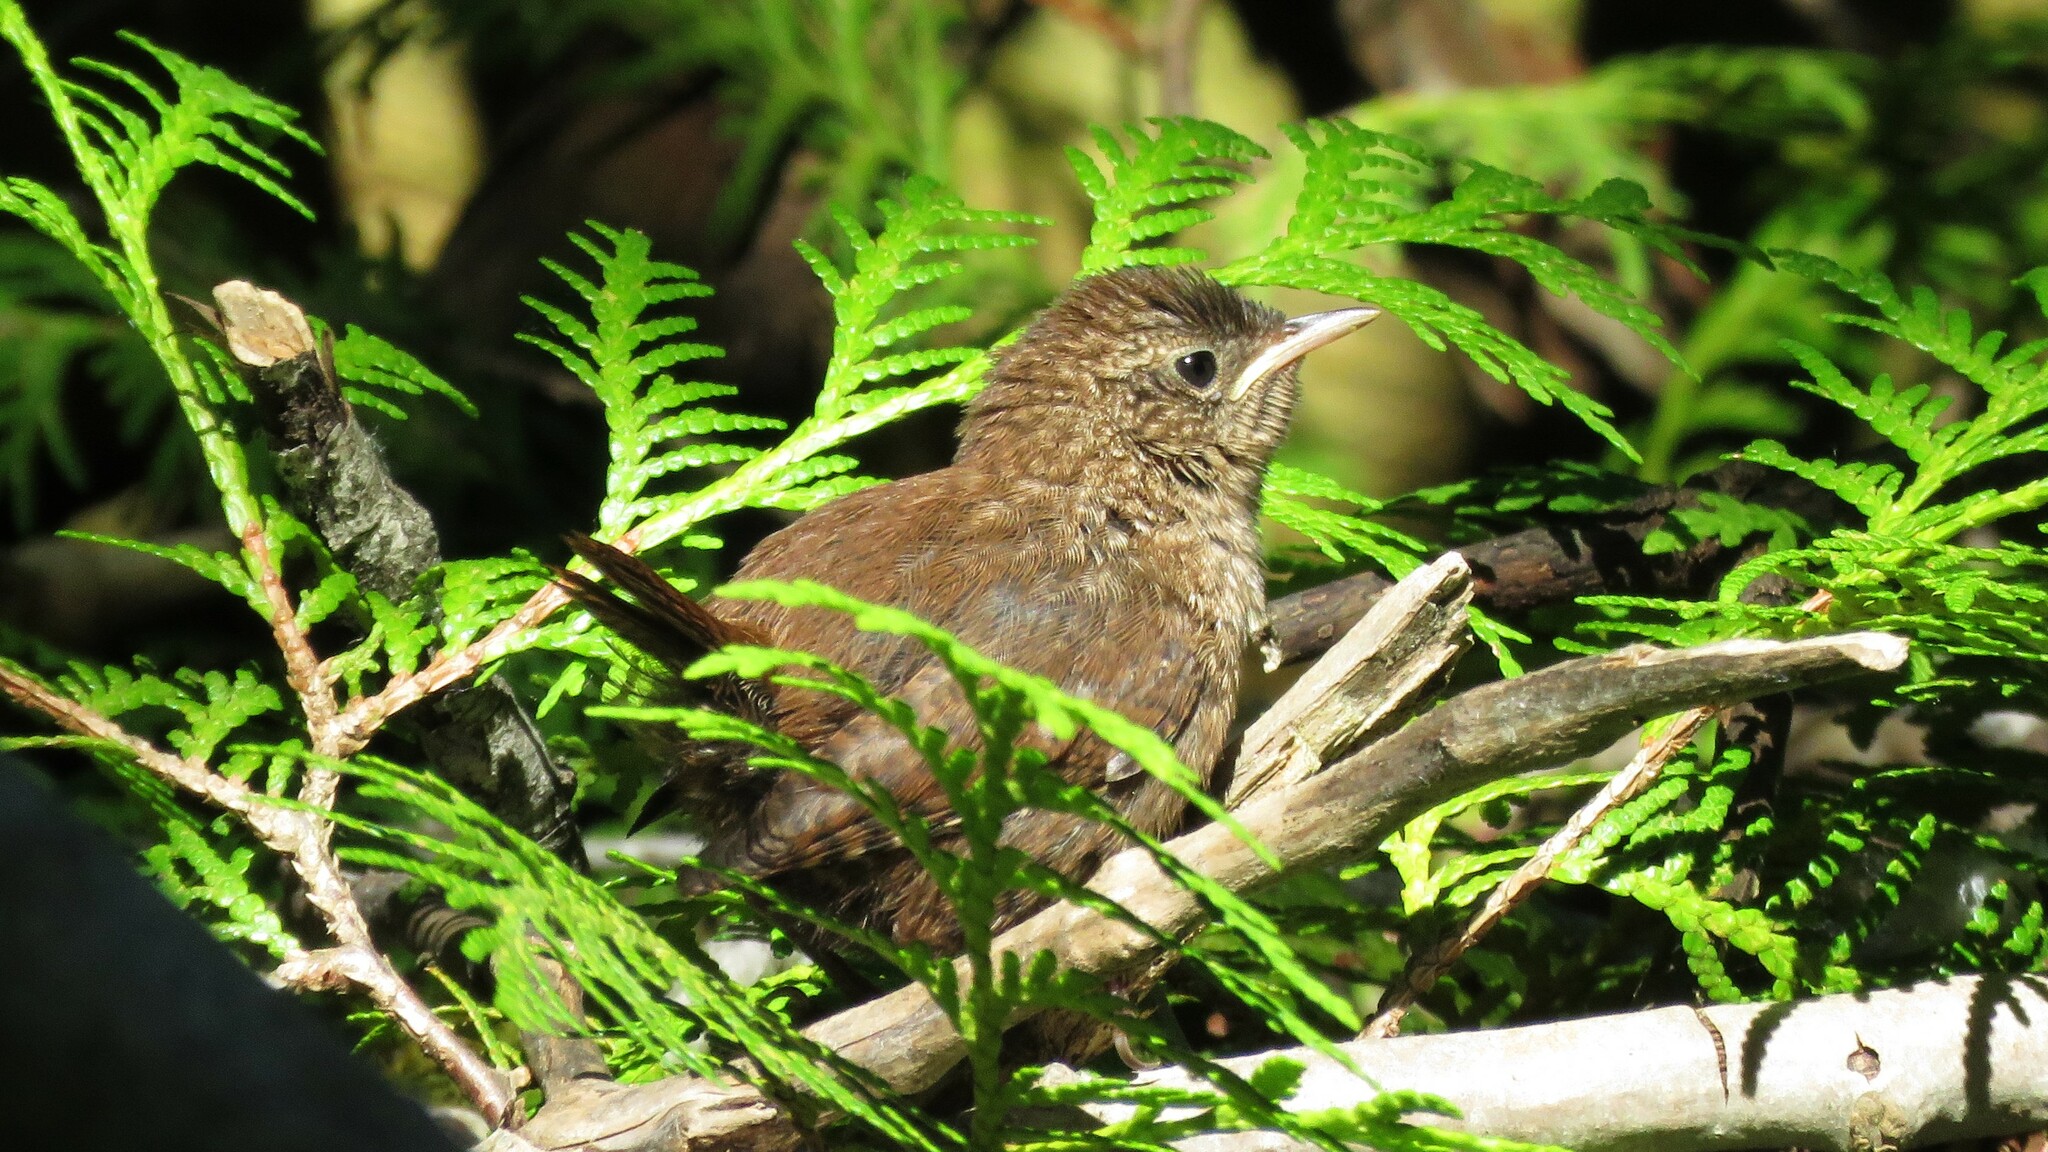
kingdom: Animalia
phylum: Chordata
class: Aves
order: Passeriformes
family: Troglodytidae
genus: Troglodytes
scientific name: Troglodytes hiemalis
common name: Winter wren
